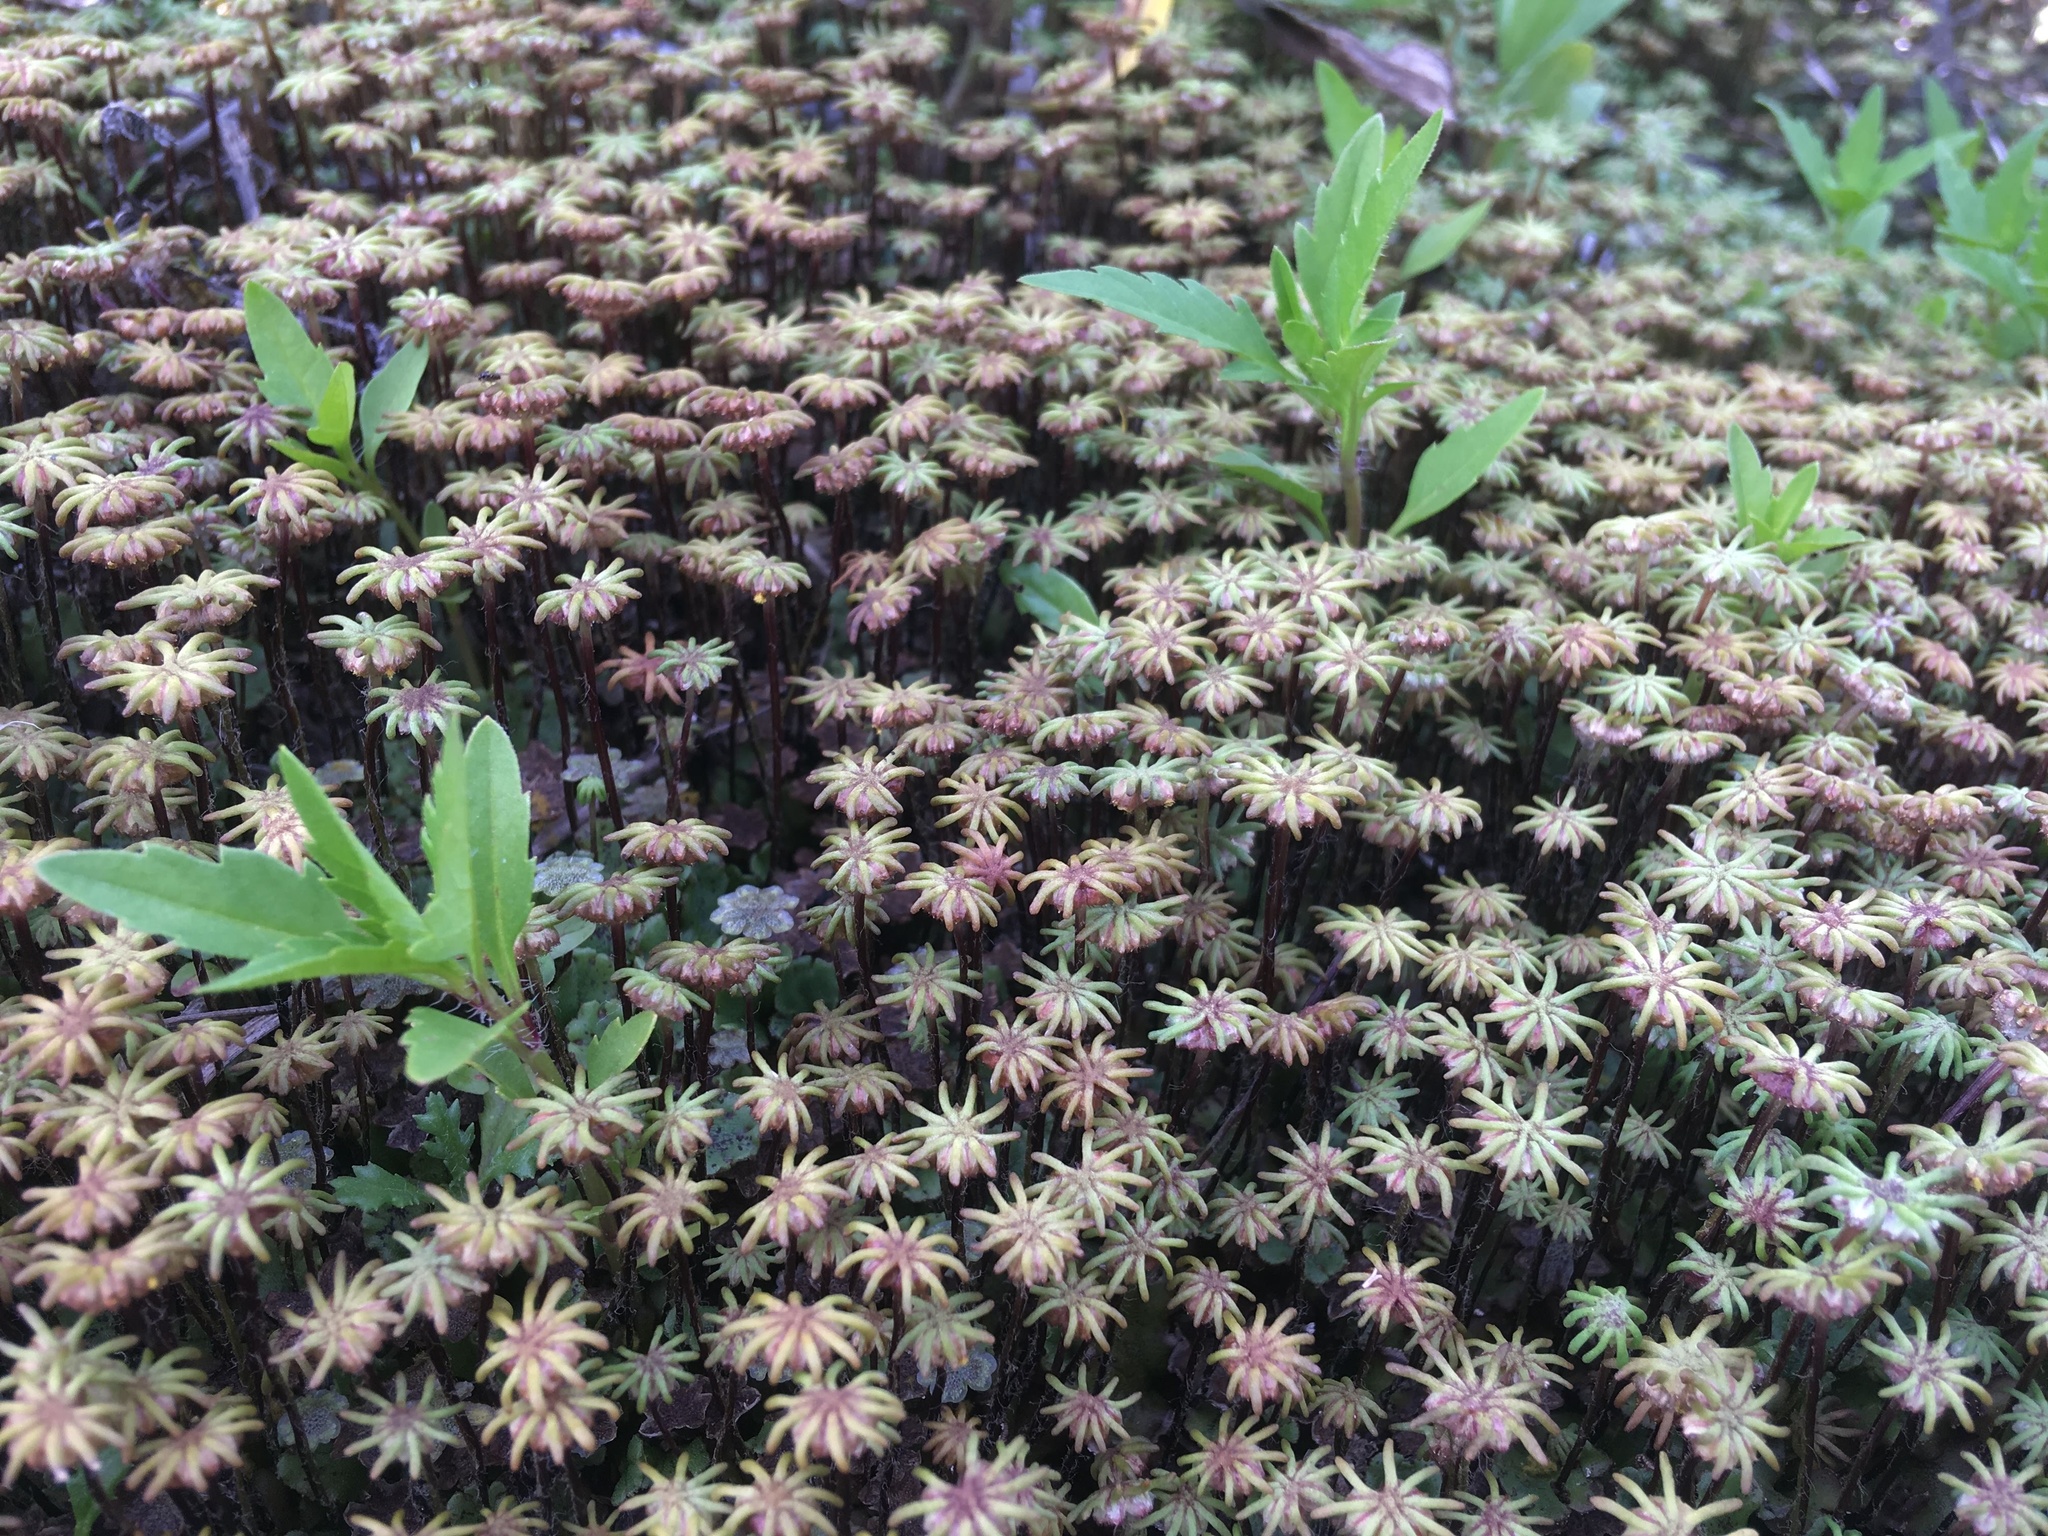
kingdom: Plantae
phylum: Marchantiophyta
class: Marchantiopsida
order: Marchantiales
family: Marchantiaceae
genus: Marchantia
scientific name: Marchantia polymorpha
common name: Common liverwort
